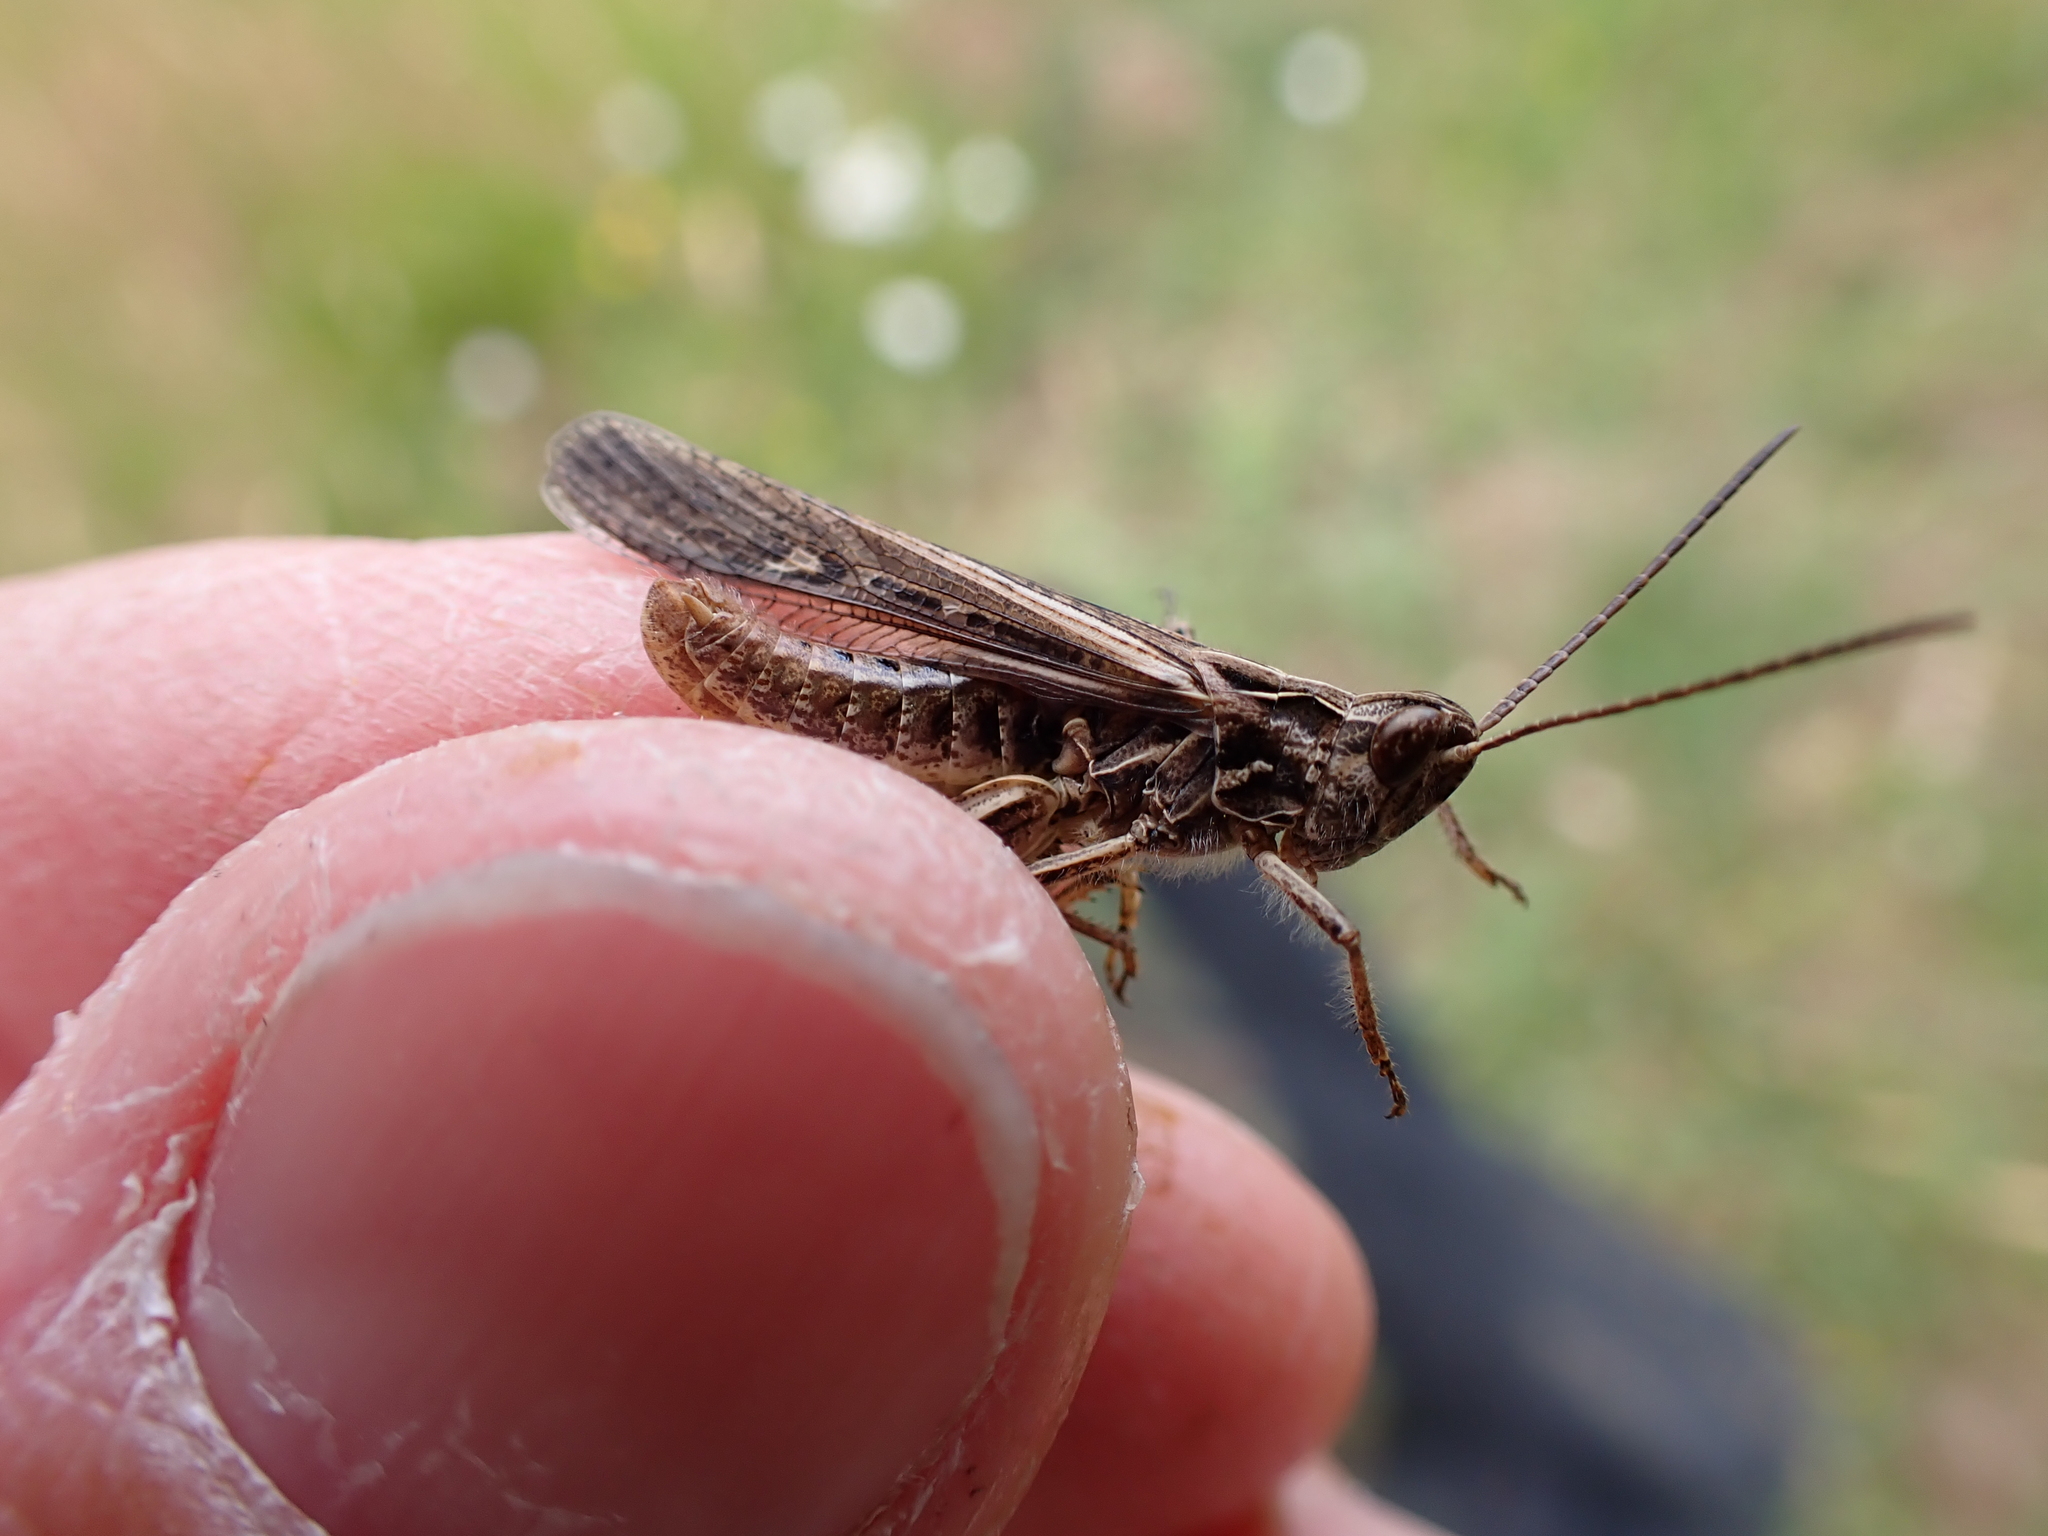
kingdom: Animalia
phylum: Arthropoda
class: Insecta
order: Orthoptera
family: Acrididae
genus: Chorthippus
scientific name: Chorthippus brunneus
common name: Field grasshopper
